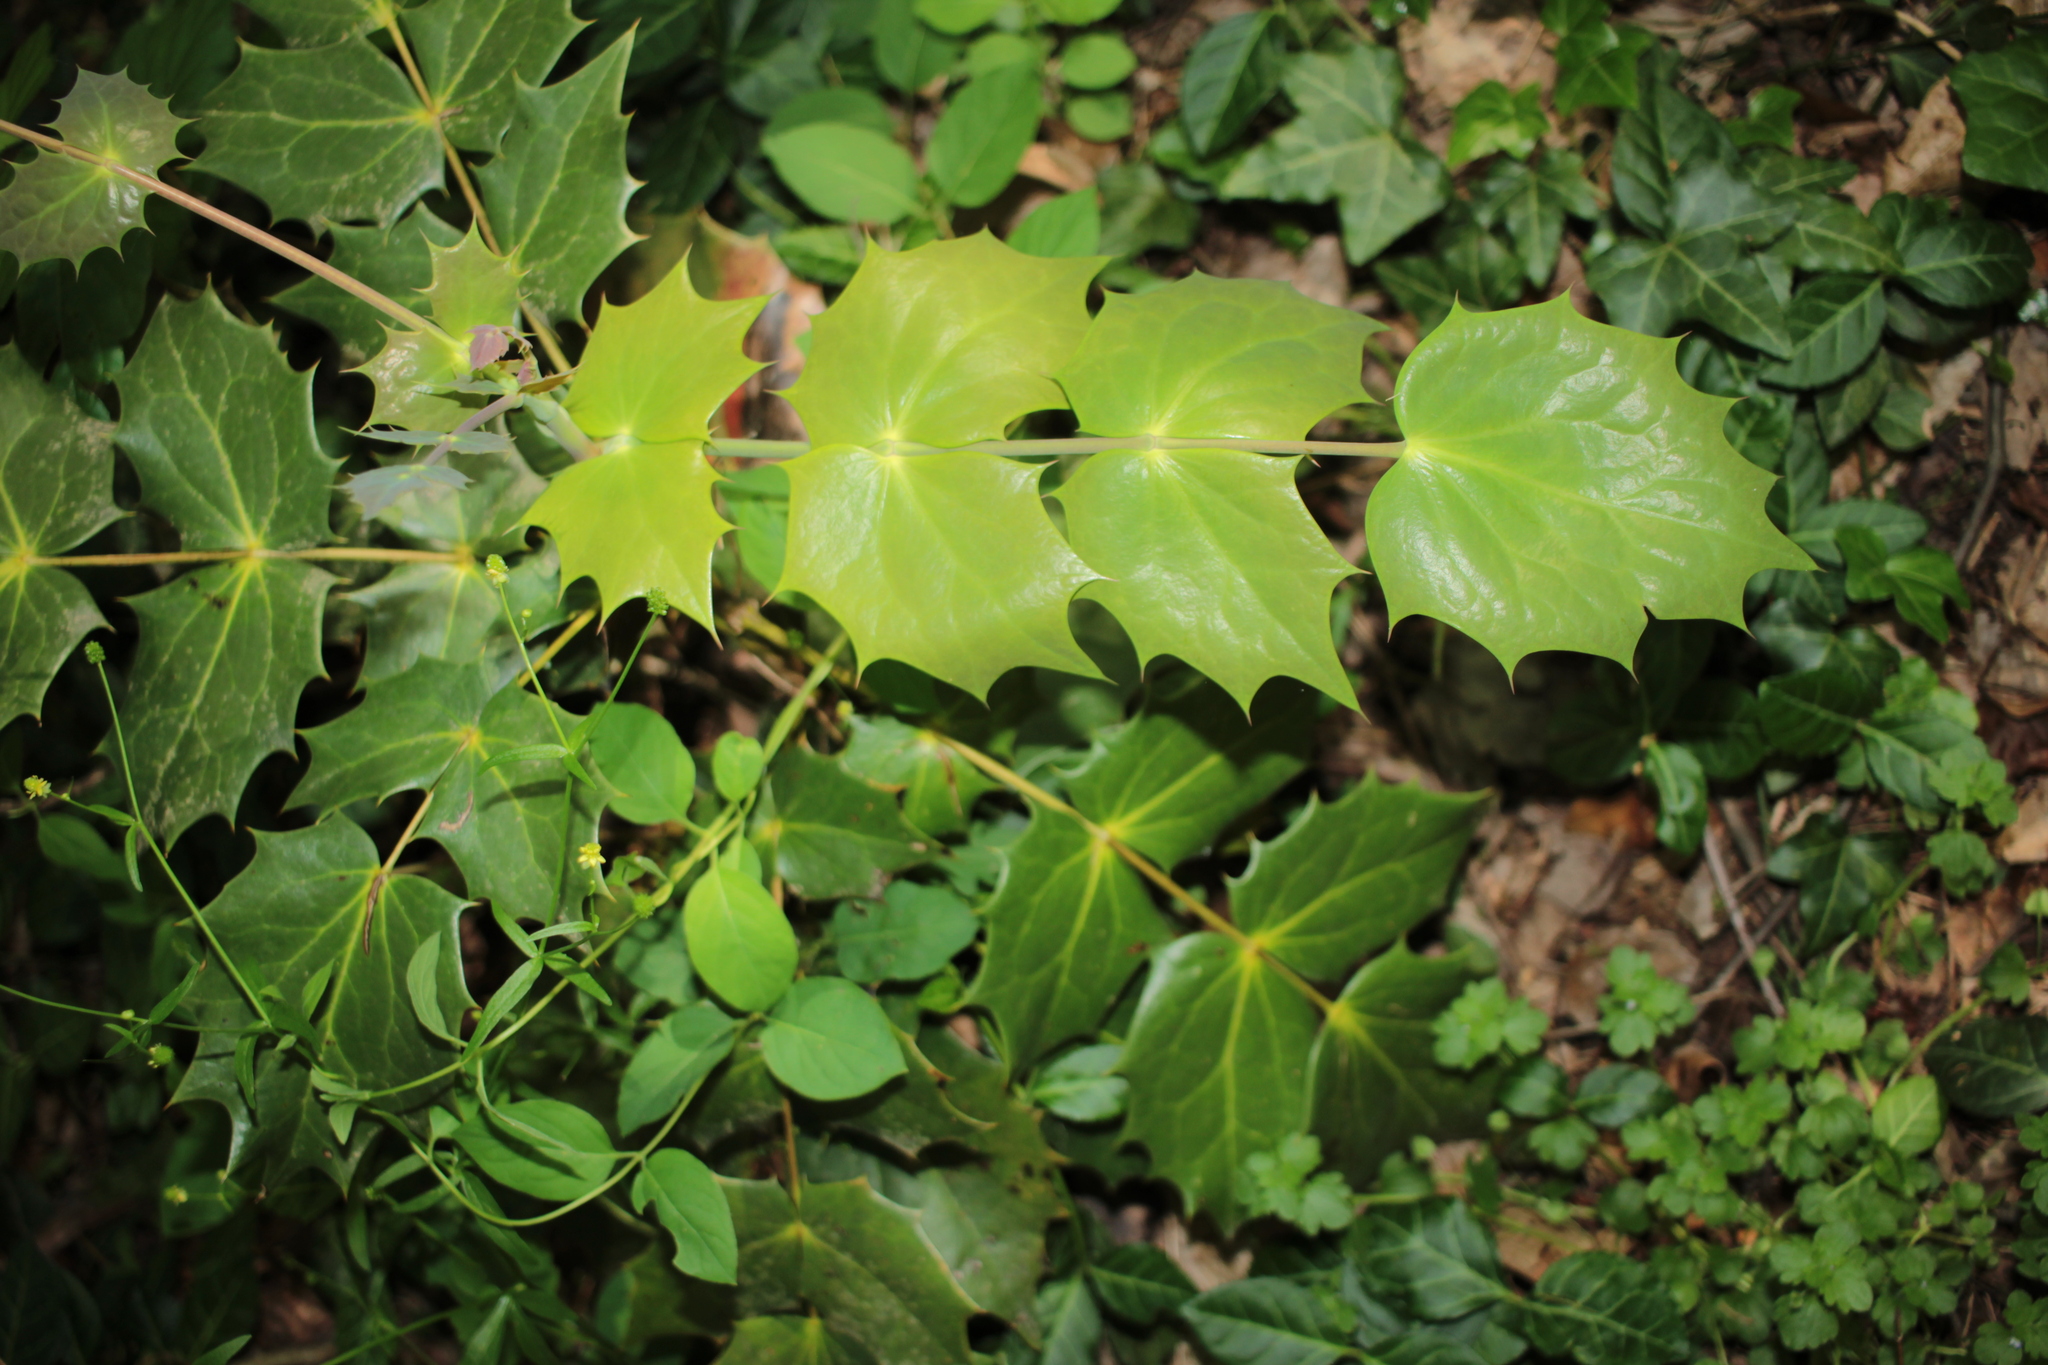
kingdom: Plantae
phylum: Tracheophyta
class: Magnoliopsida
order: Ranunculales
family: Berberidaceae
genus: Mahonia
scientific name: Mahonia bealei
